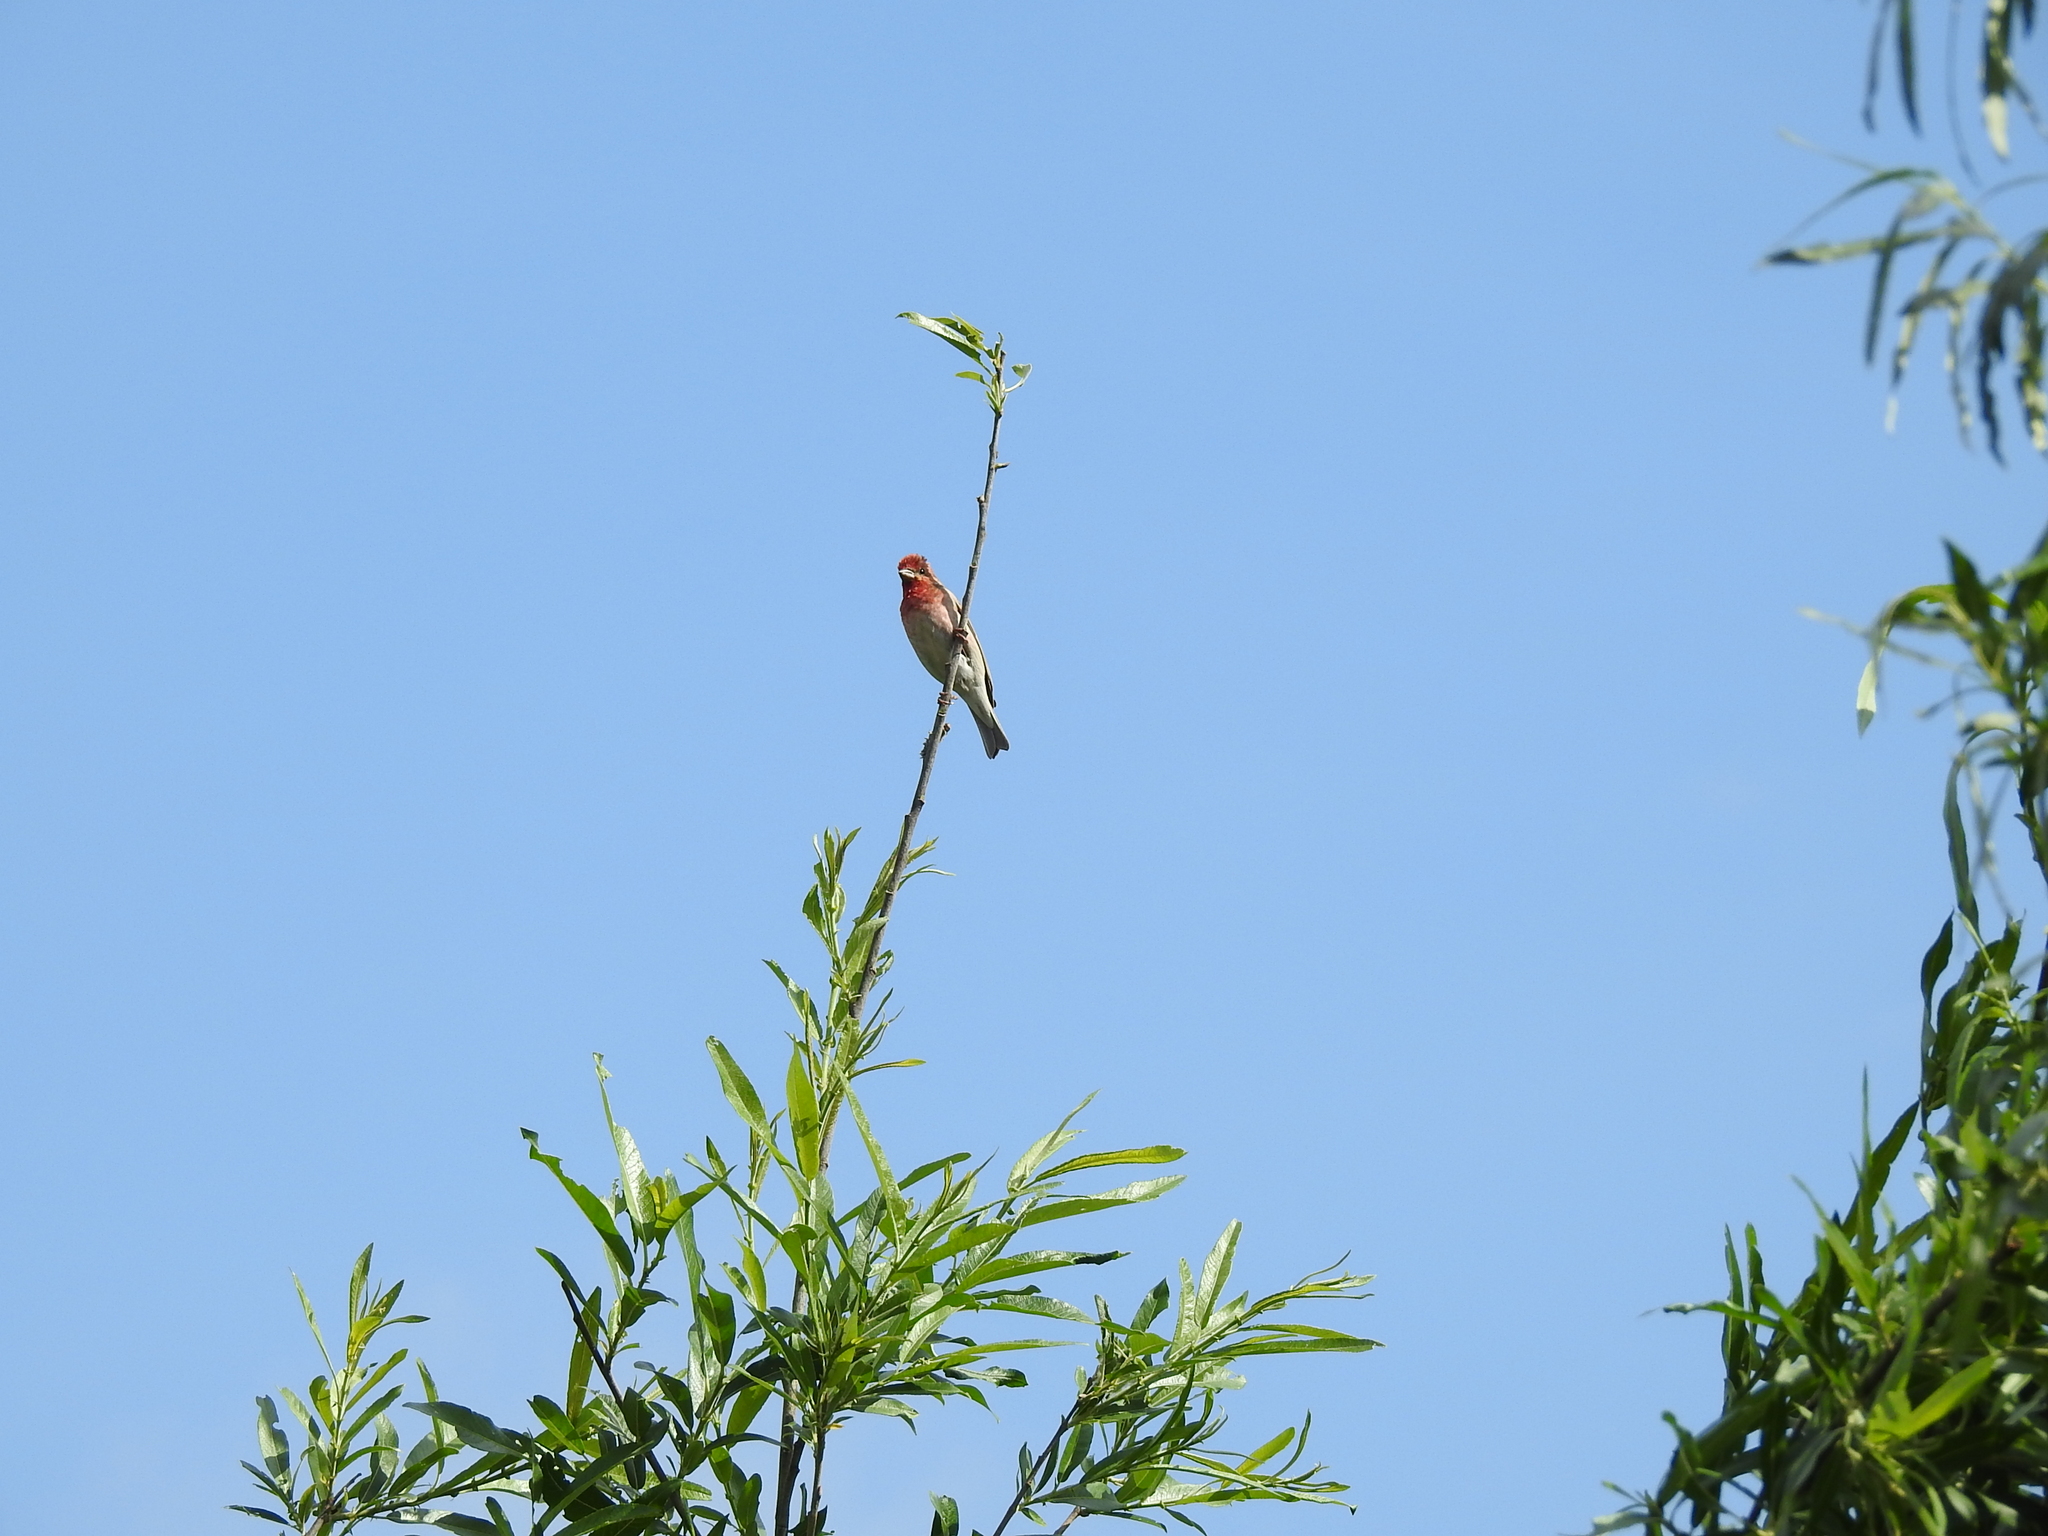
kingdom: Animalia
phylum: Chordata
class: Aves
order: Passeriformes
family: Fringillidae
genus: Carpodacus
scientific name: Carpodacus erythrinus
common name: Common rosefinch
